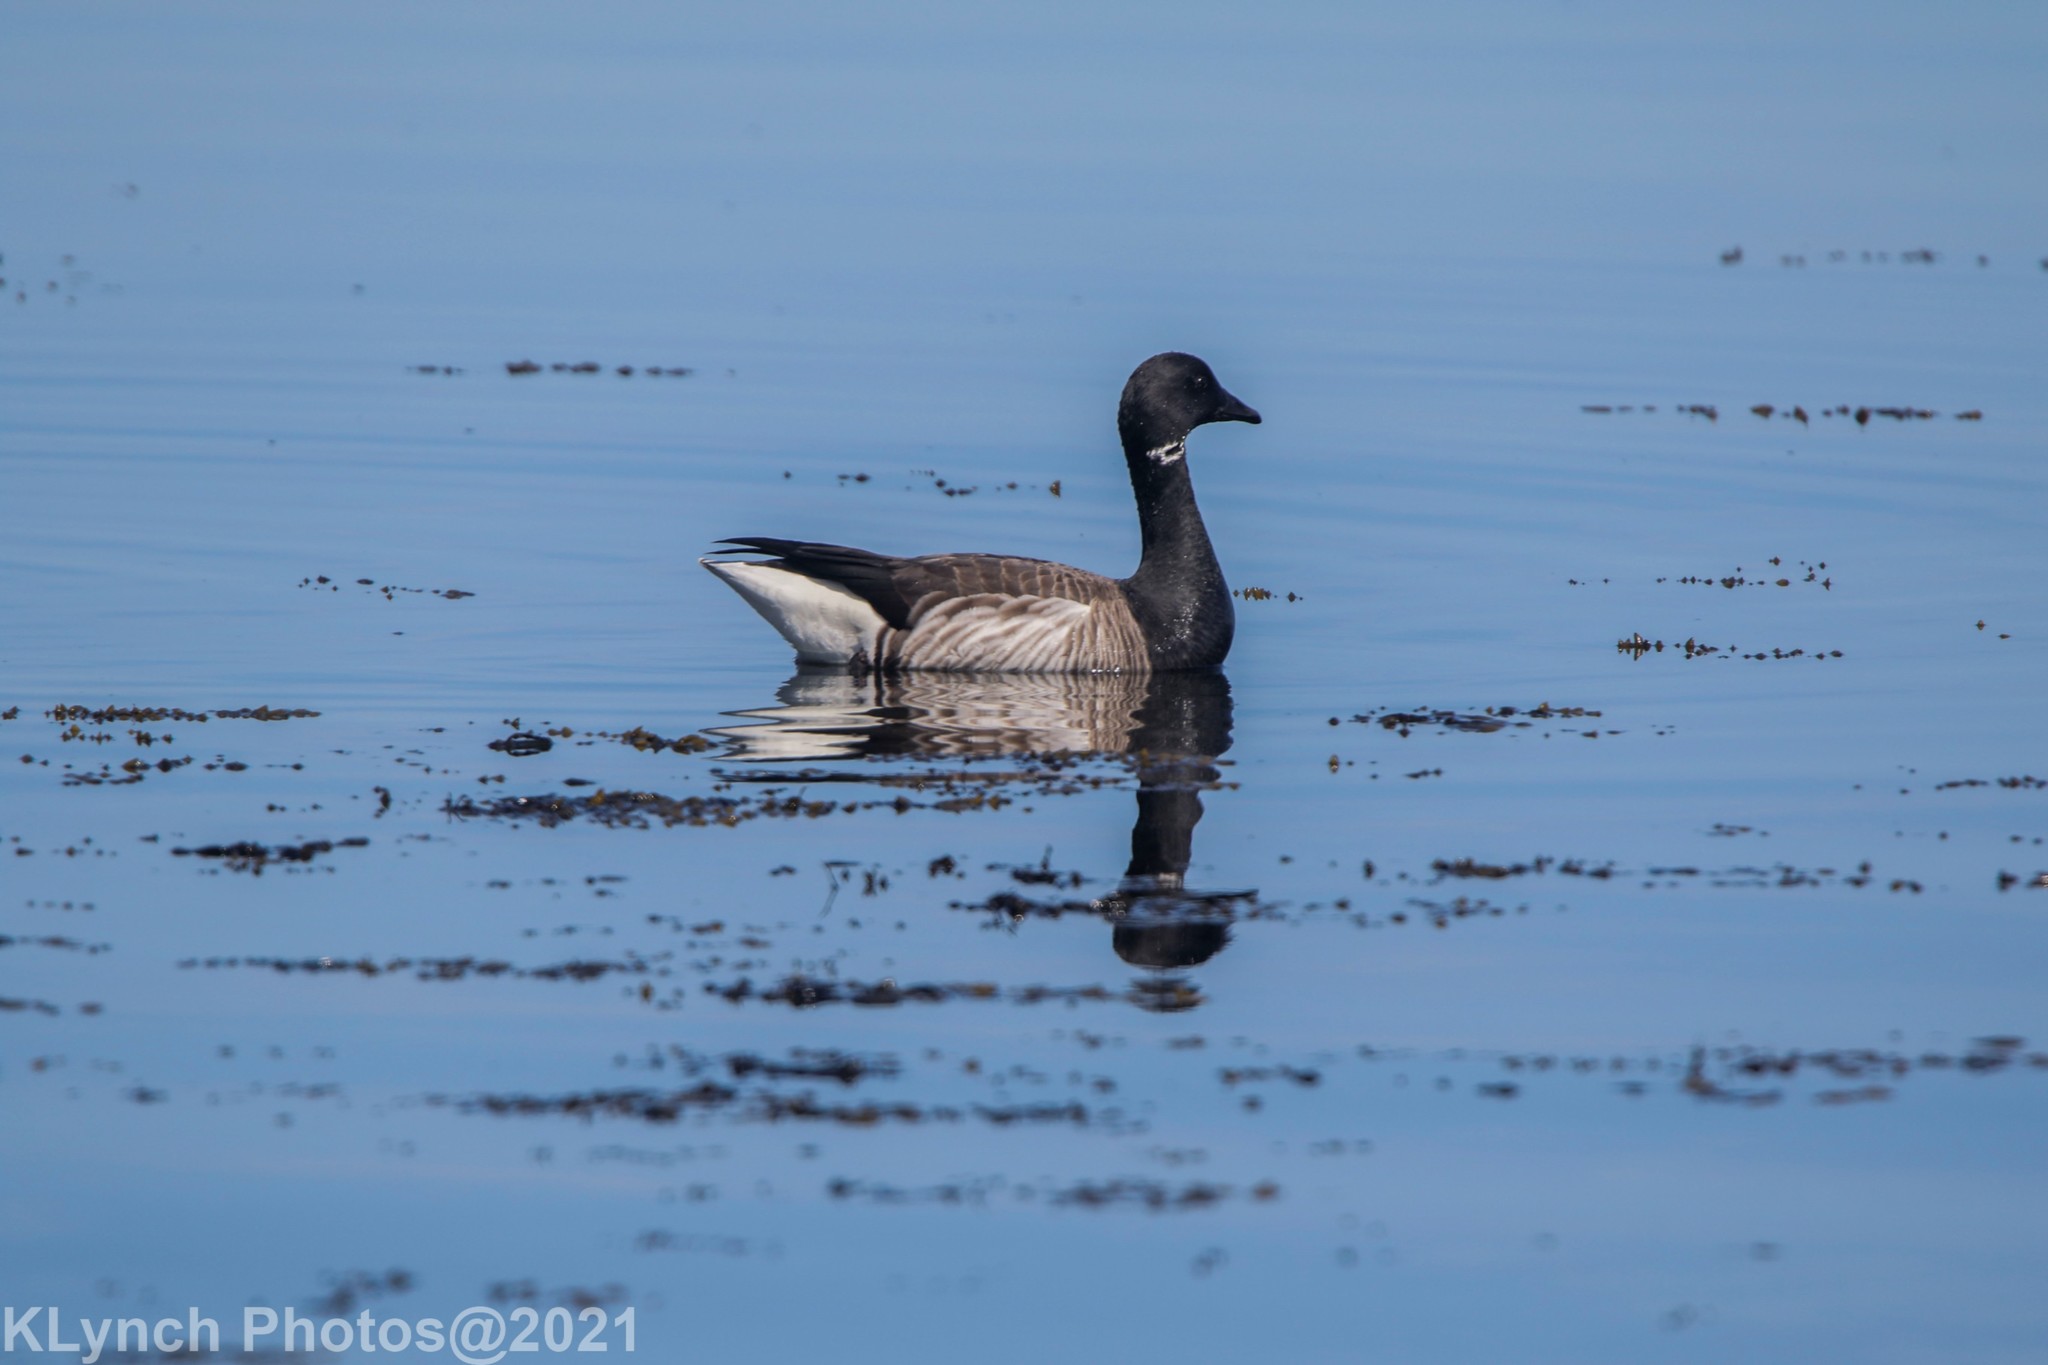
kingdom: Animalia
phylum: Chordata
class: Aves
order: Anseriformes
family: Anatidae
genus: Branta
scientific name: Branta bernicla
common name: Brant goose
